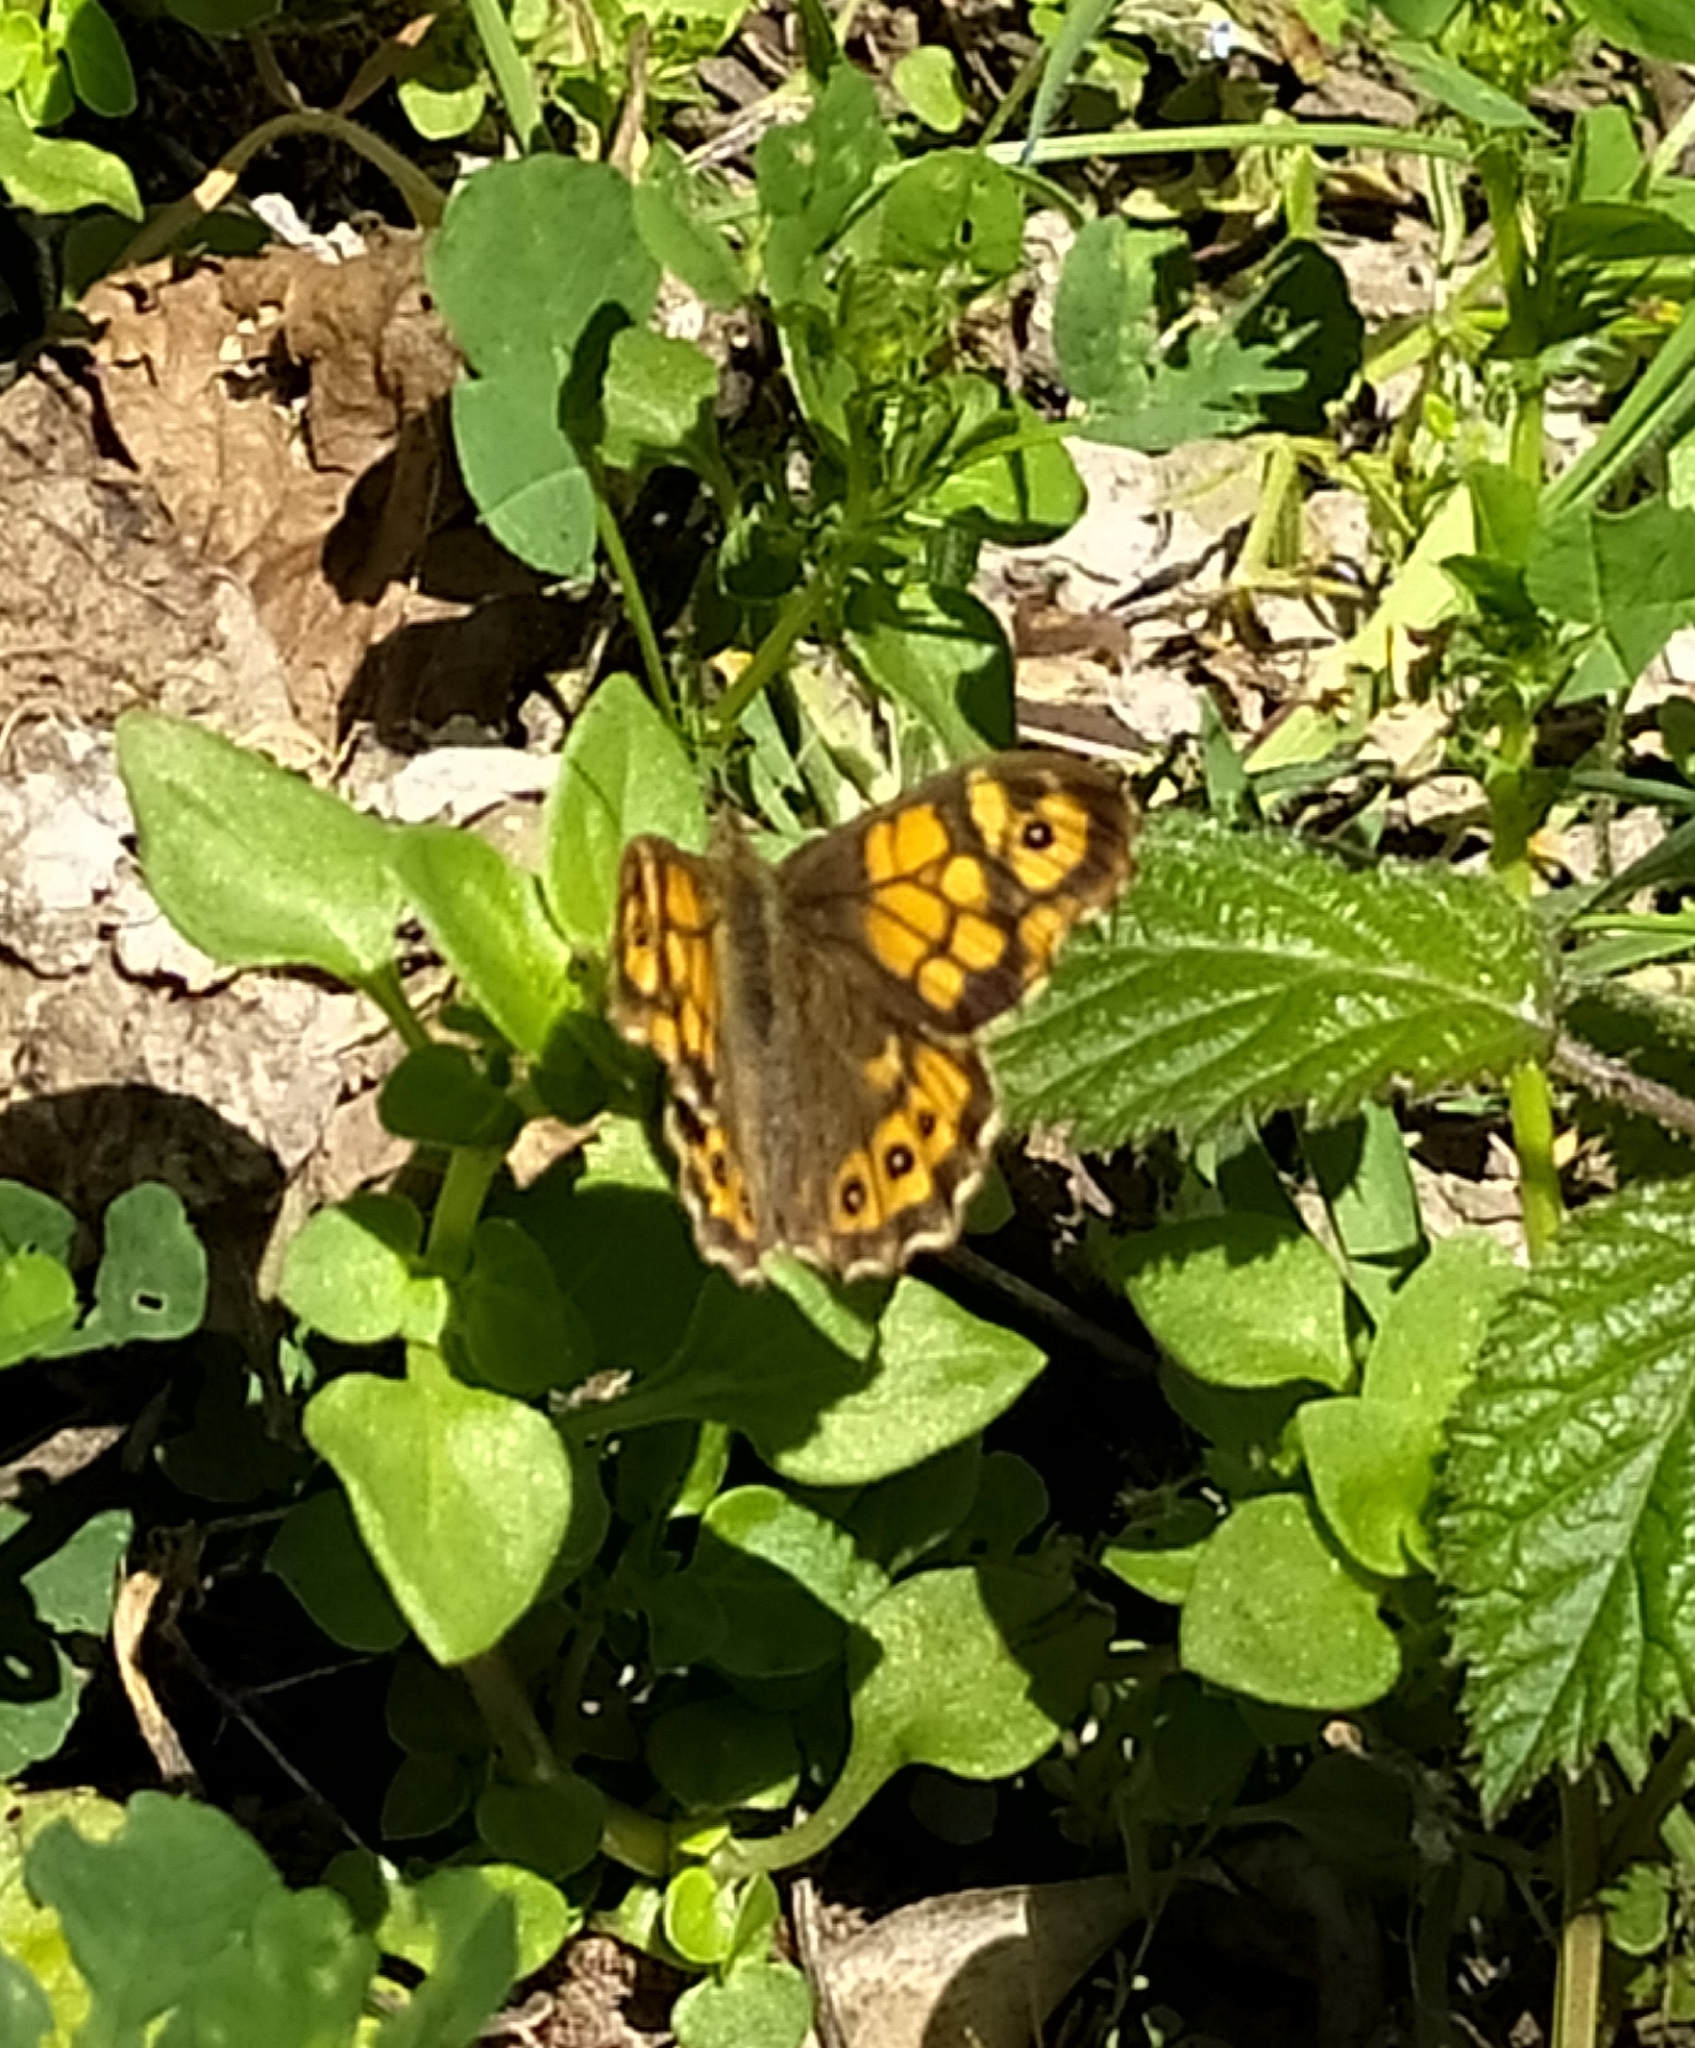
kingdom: Animalia
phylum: Arthropoda
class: Insecta
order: Lepidoptera
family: Nymphalidae
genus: Pararge
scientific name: Pararge aegeria
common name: Speckled wood
